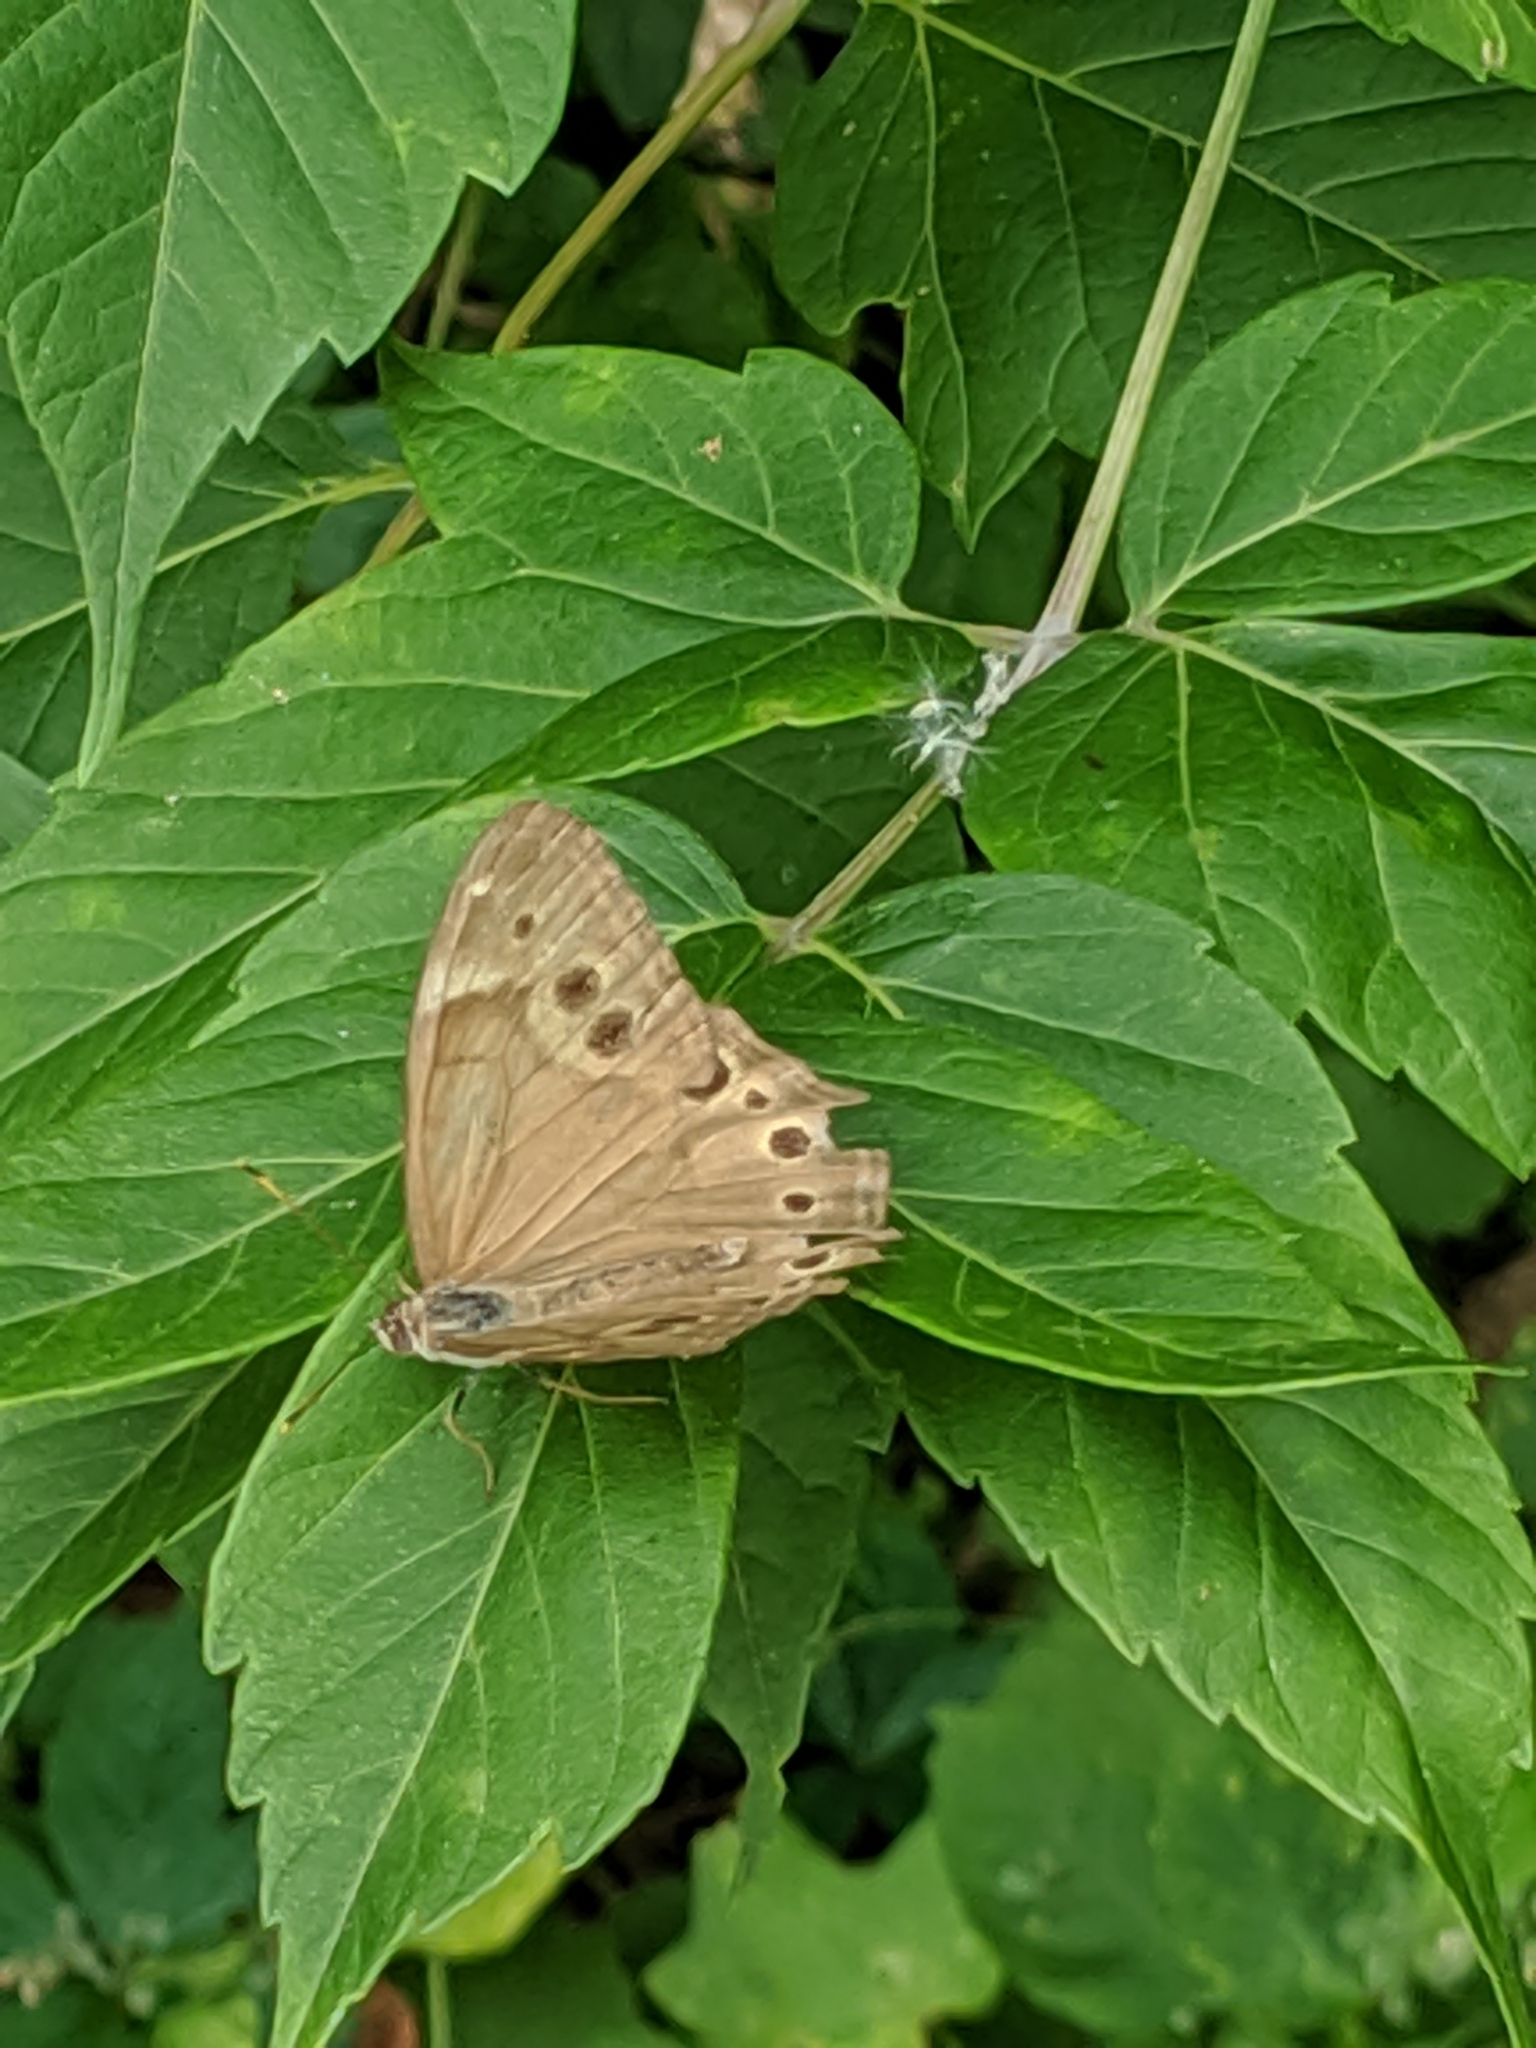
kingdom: Animalia
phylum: Arthropoda
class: Insecta
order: Lepidoptera
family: Nymphalidae
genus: Lethe
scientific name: Lethe anthedon
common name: Northern pearly-eye
